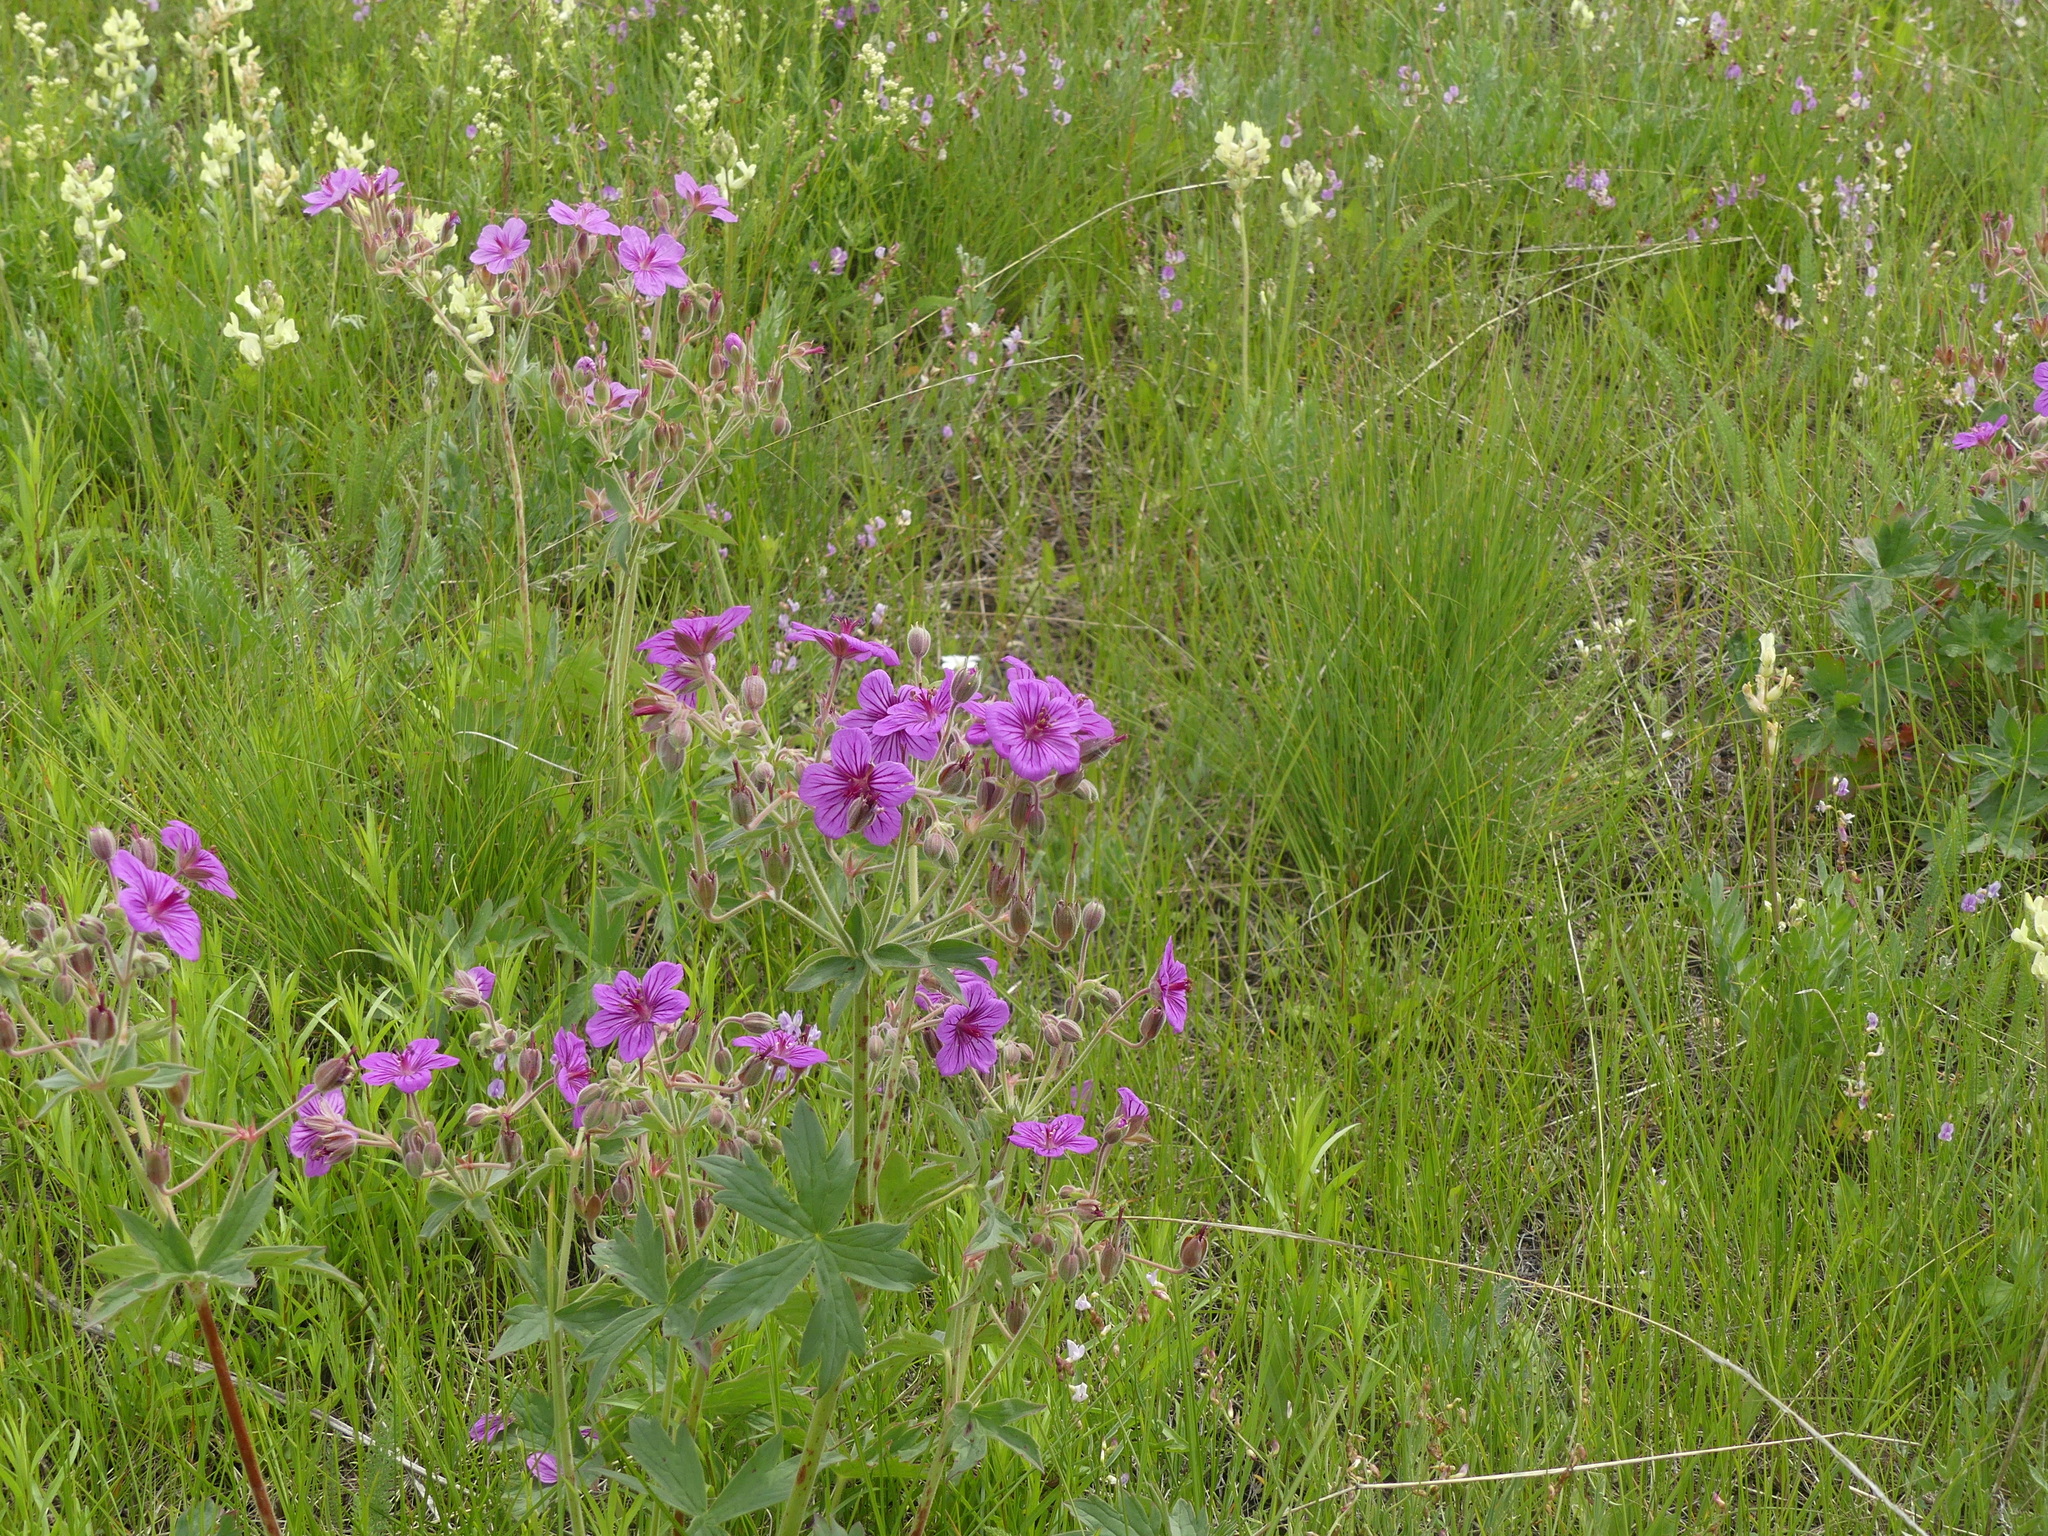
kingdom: Plantae
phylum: Tracheophyta
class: Magnoliopsida
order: Geraniales
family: Geraniaceae
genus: Geranium
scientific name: Geranium viscosissimum
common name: Purple geranium
